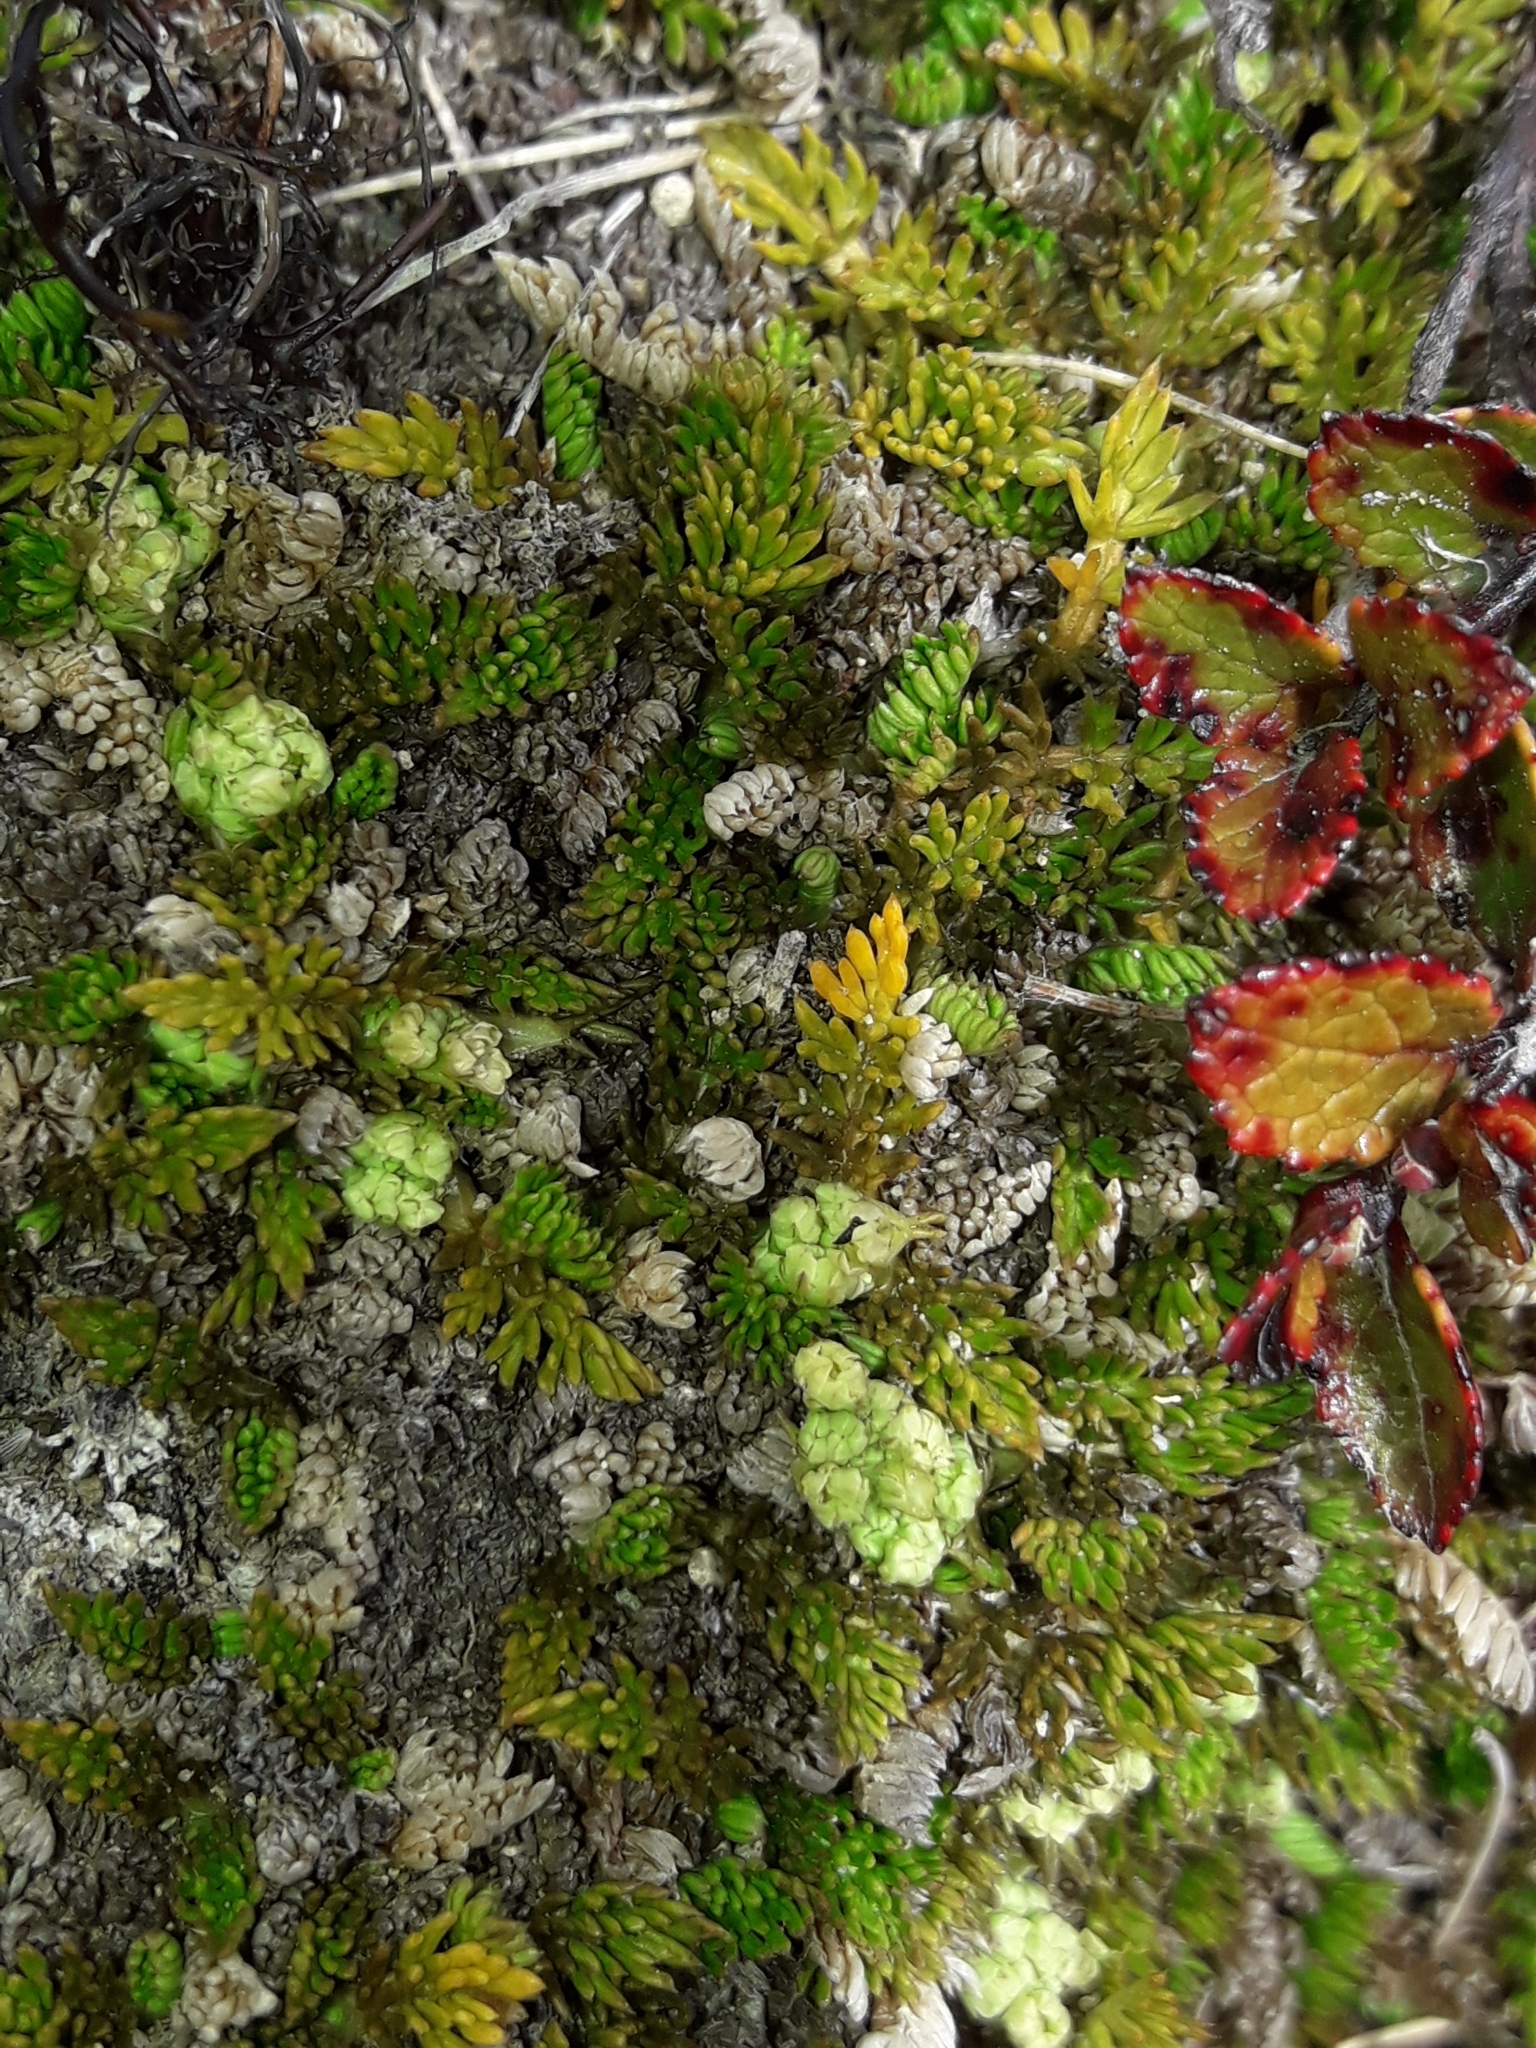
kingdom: Plantae
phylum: Tracheophyta
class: Magnoliopsida
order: Apiales
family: Apiaceae
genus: Anisotome
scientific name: Anisotome imbricata
